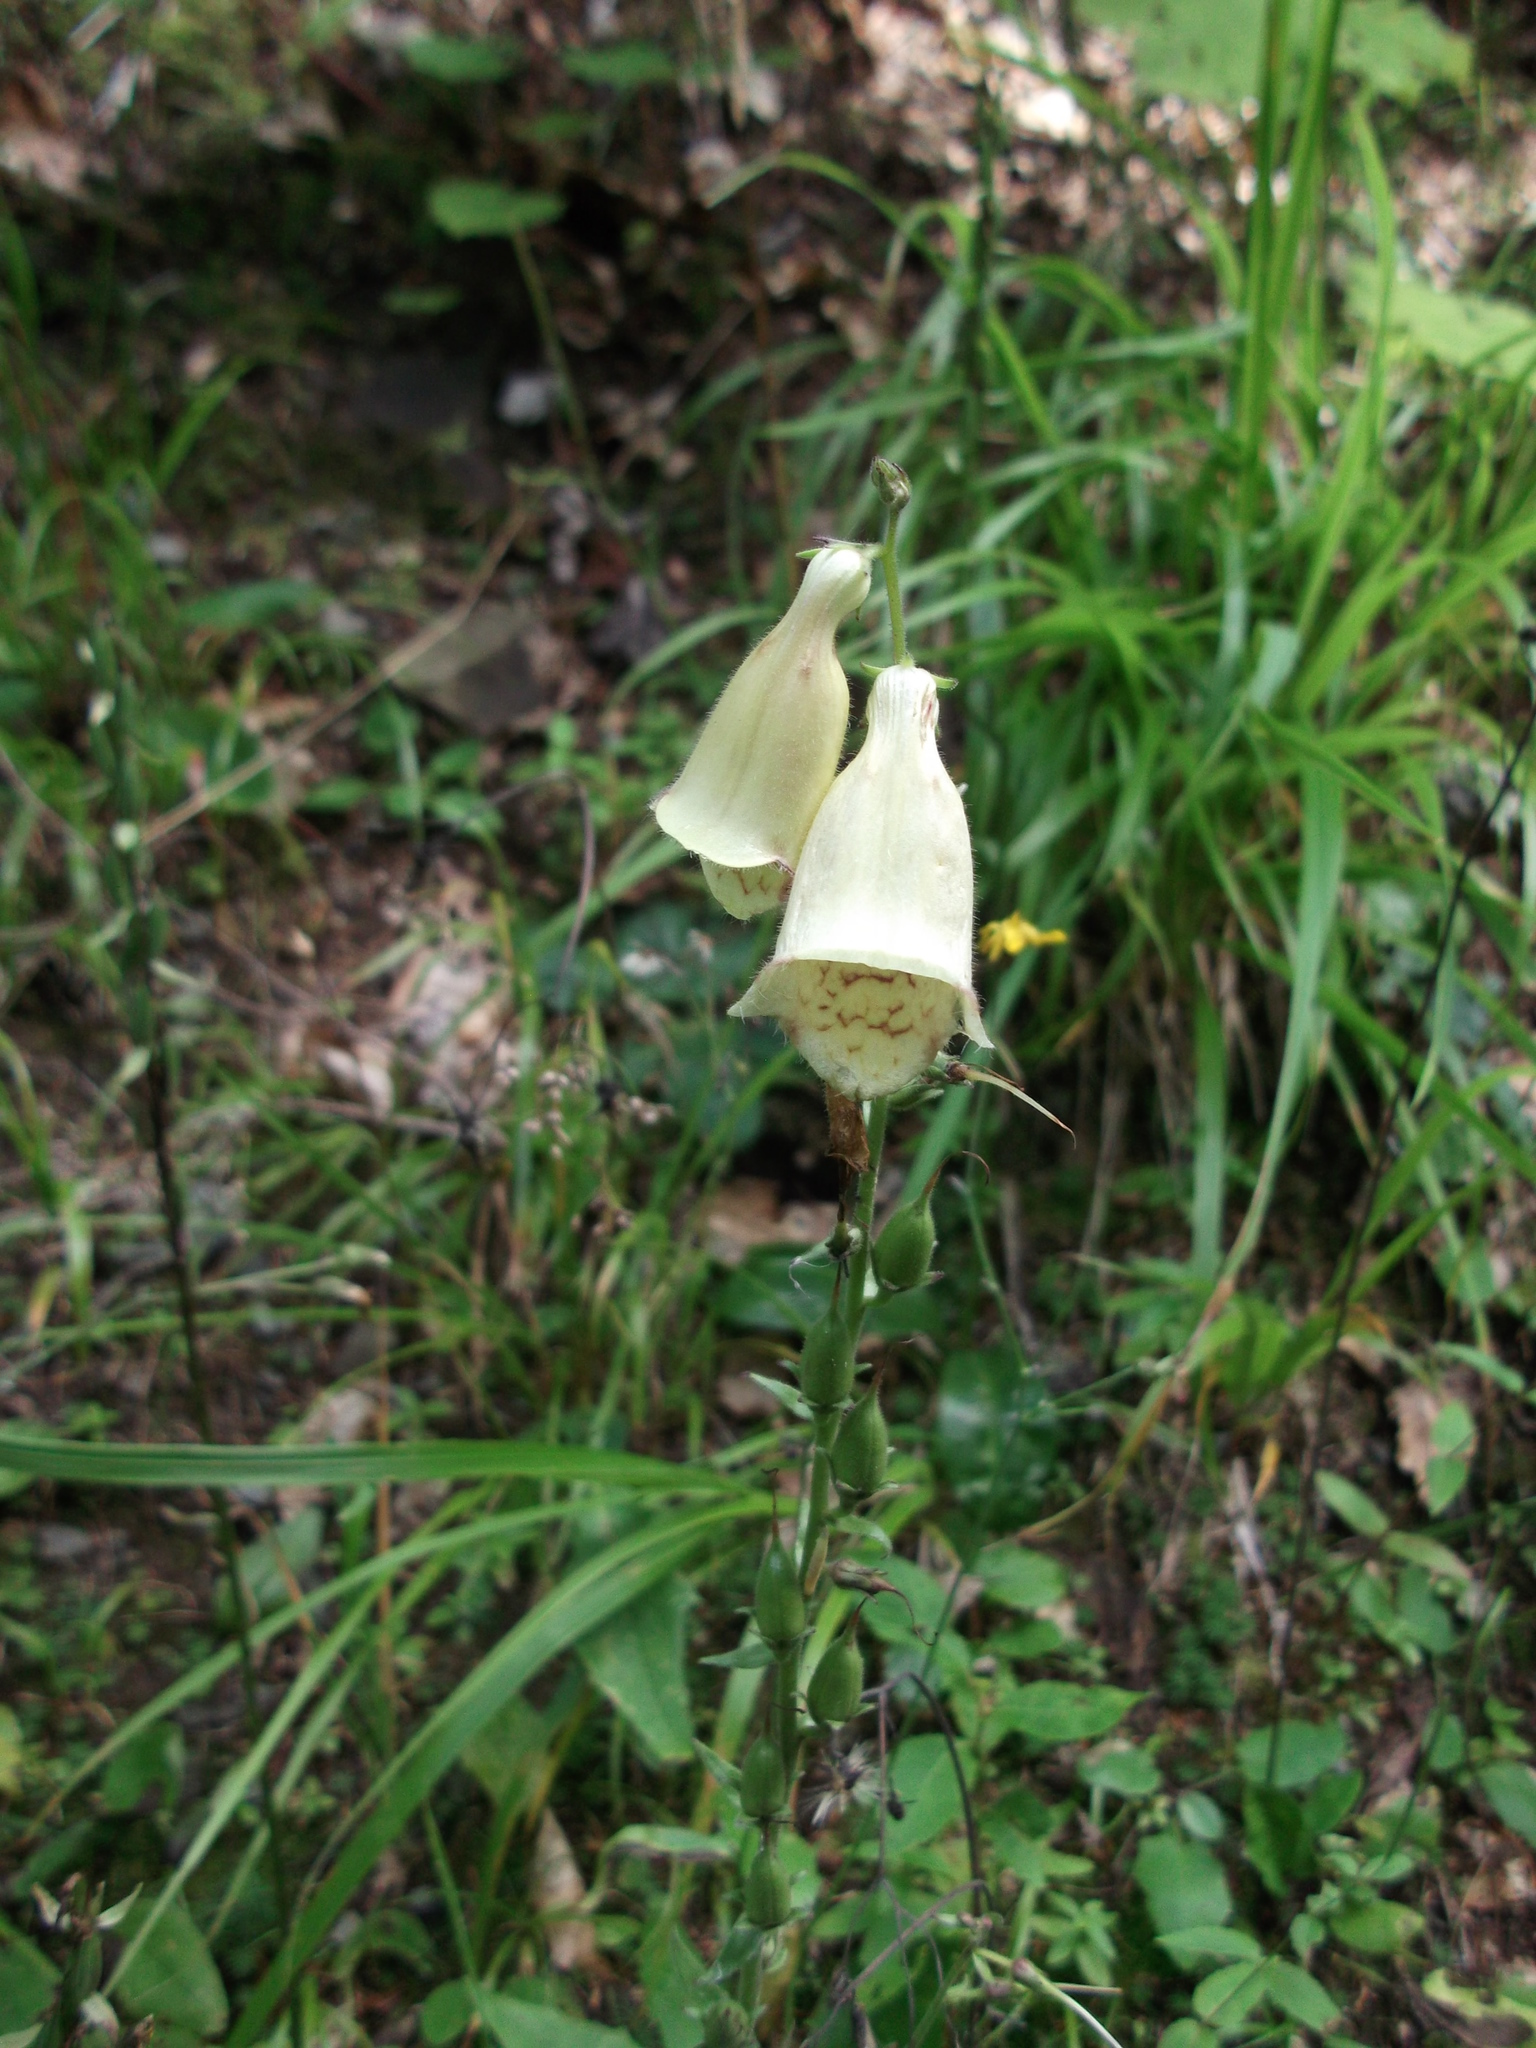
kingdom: Plantae
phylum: Tracheophyta
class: Magnoliopsida
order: Lamiales
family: Plantaginaceae
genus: Digitalis
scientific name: Digitalis grandiflora
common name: Yellow foxglove
